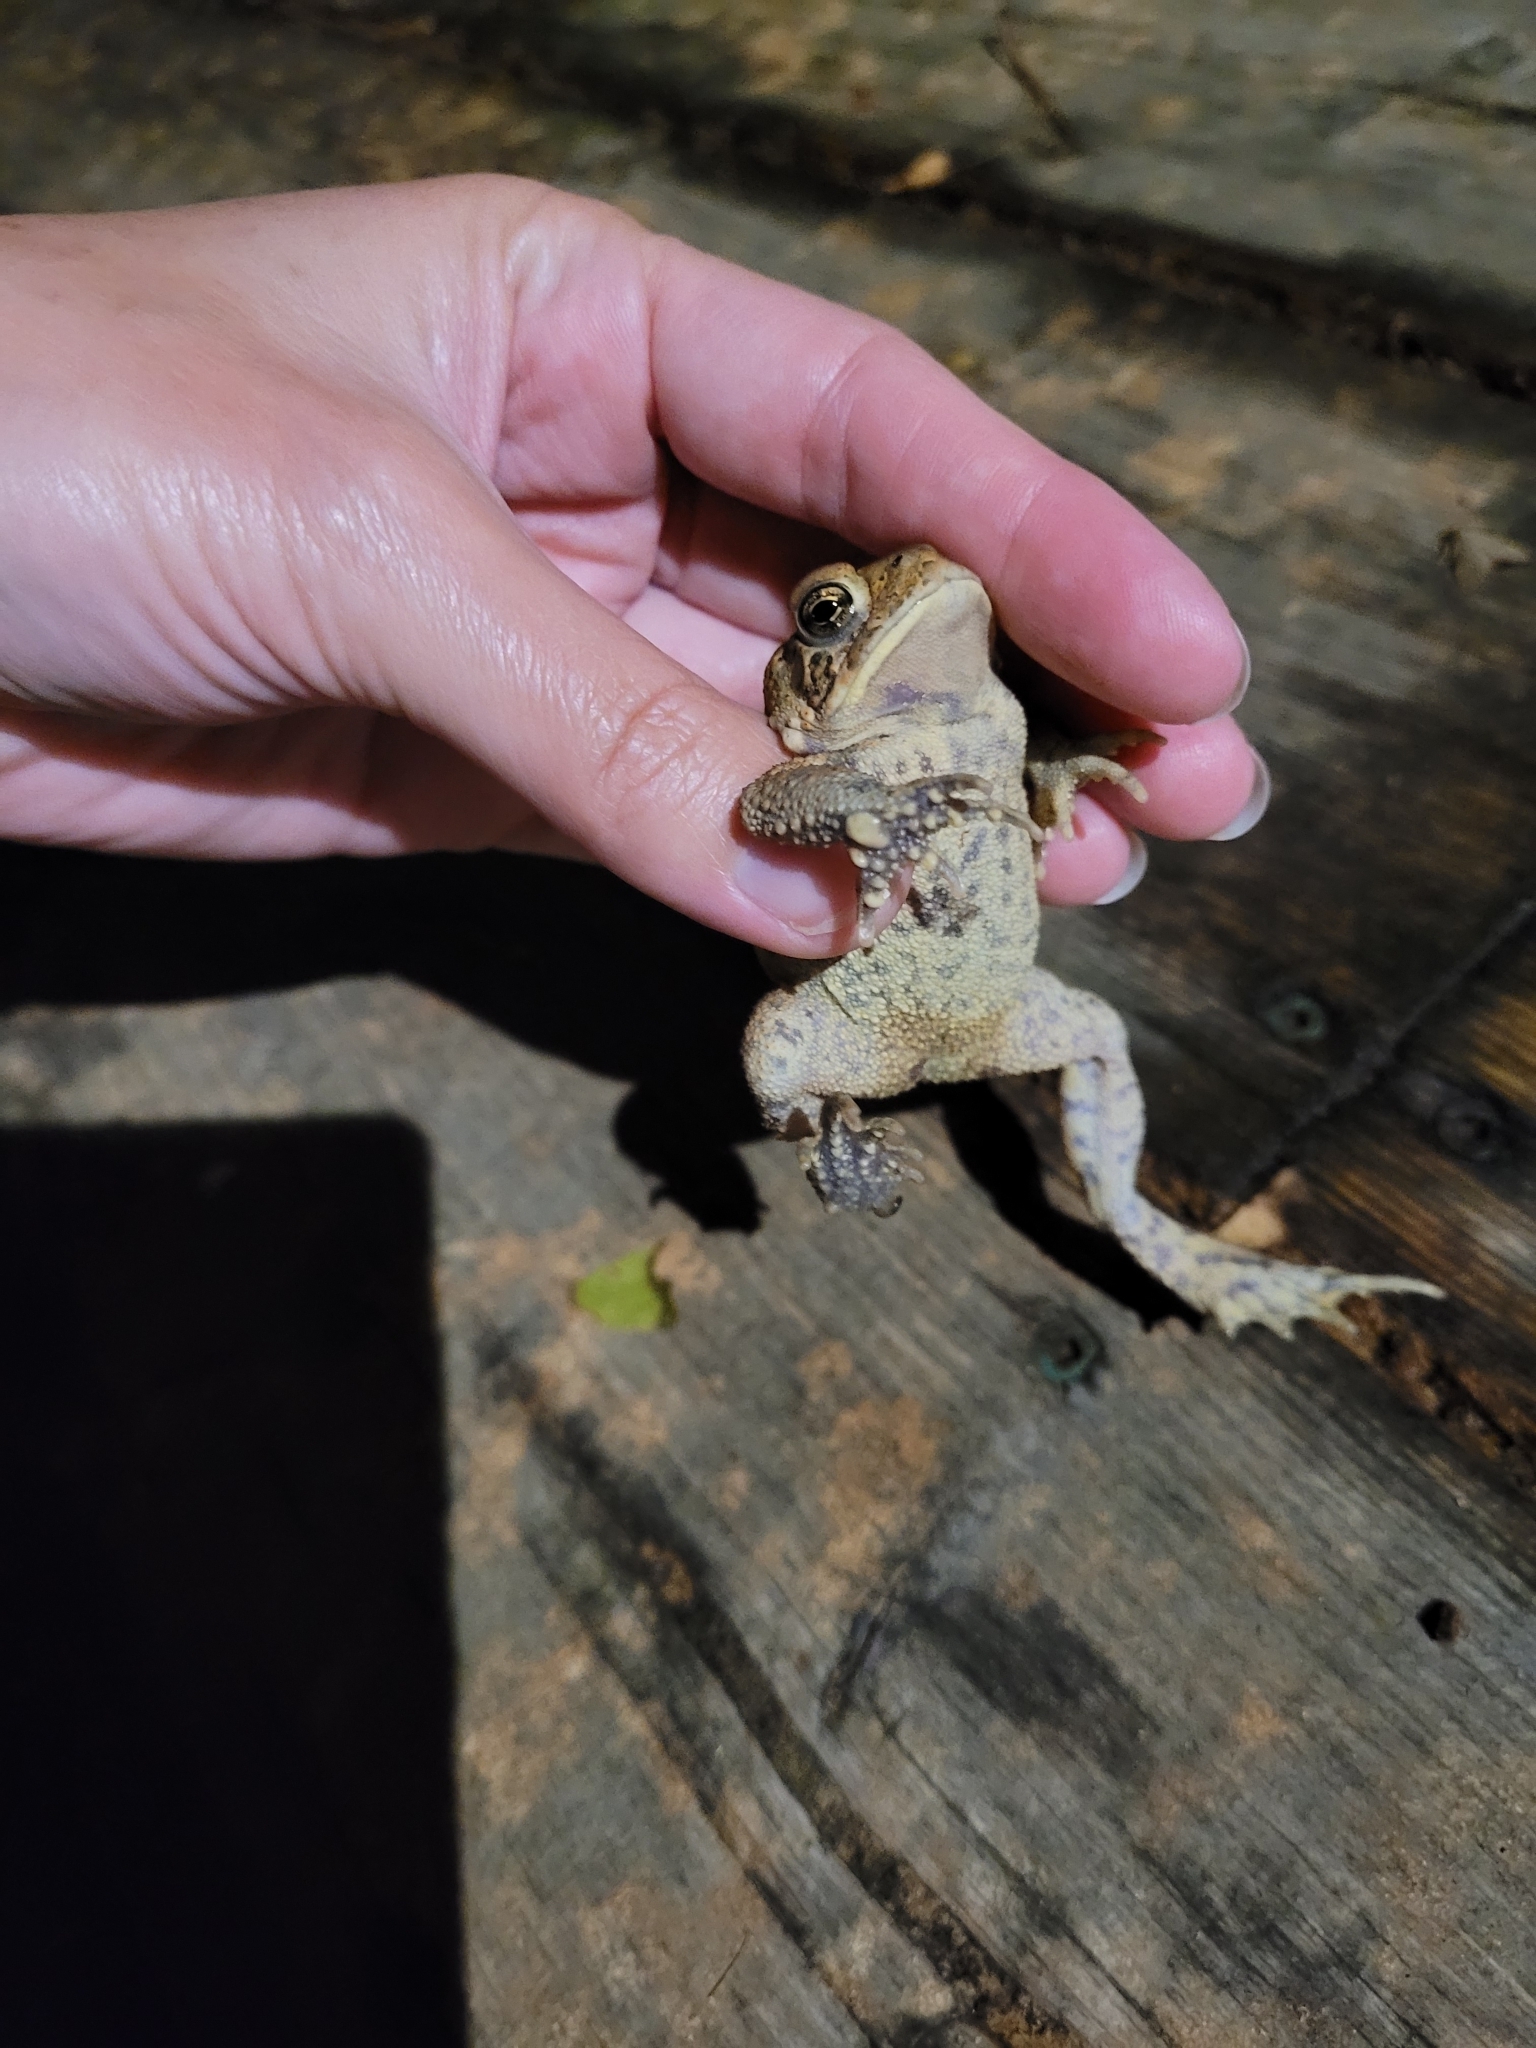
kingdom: Animalia
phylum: Chordata
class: Amphibia
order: Anura
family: Bufonidae
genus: Anaxyrus
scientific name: Anaxyrus americanus
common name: American toad
